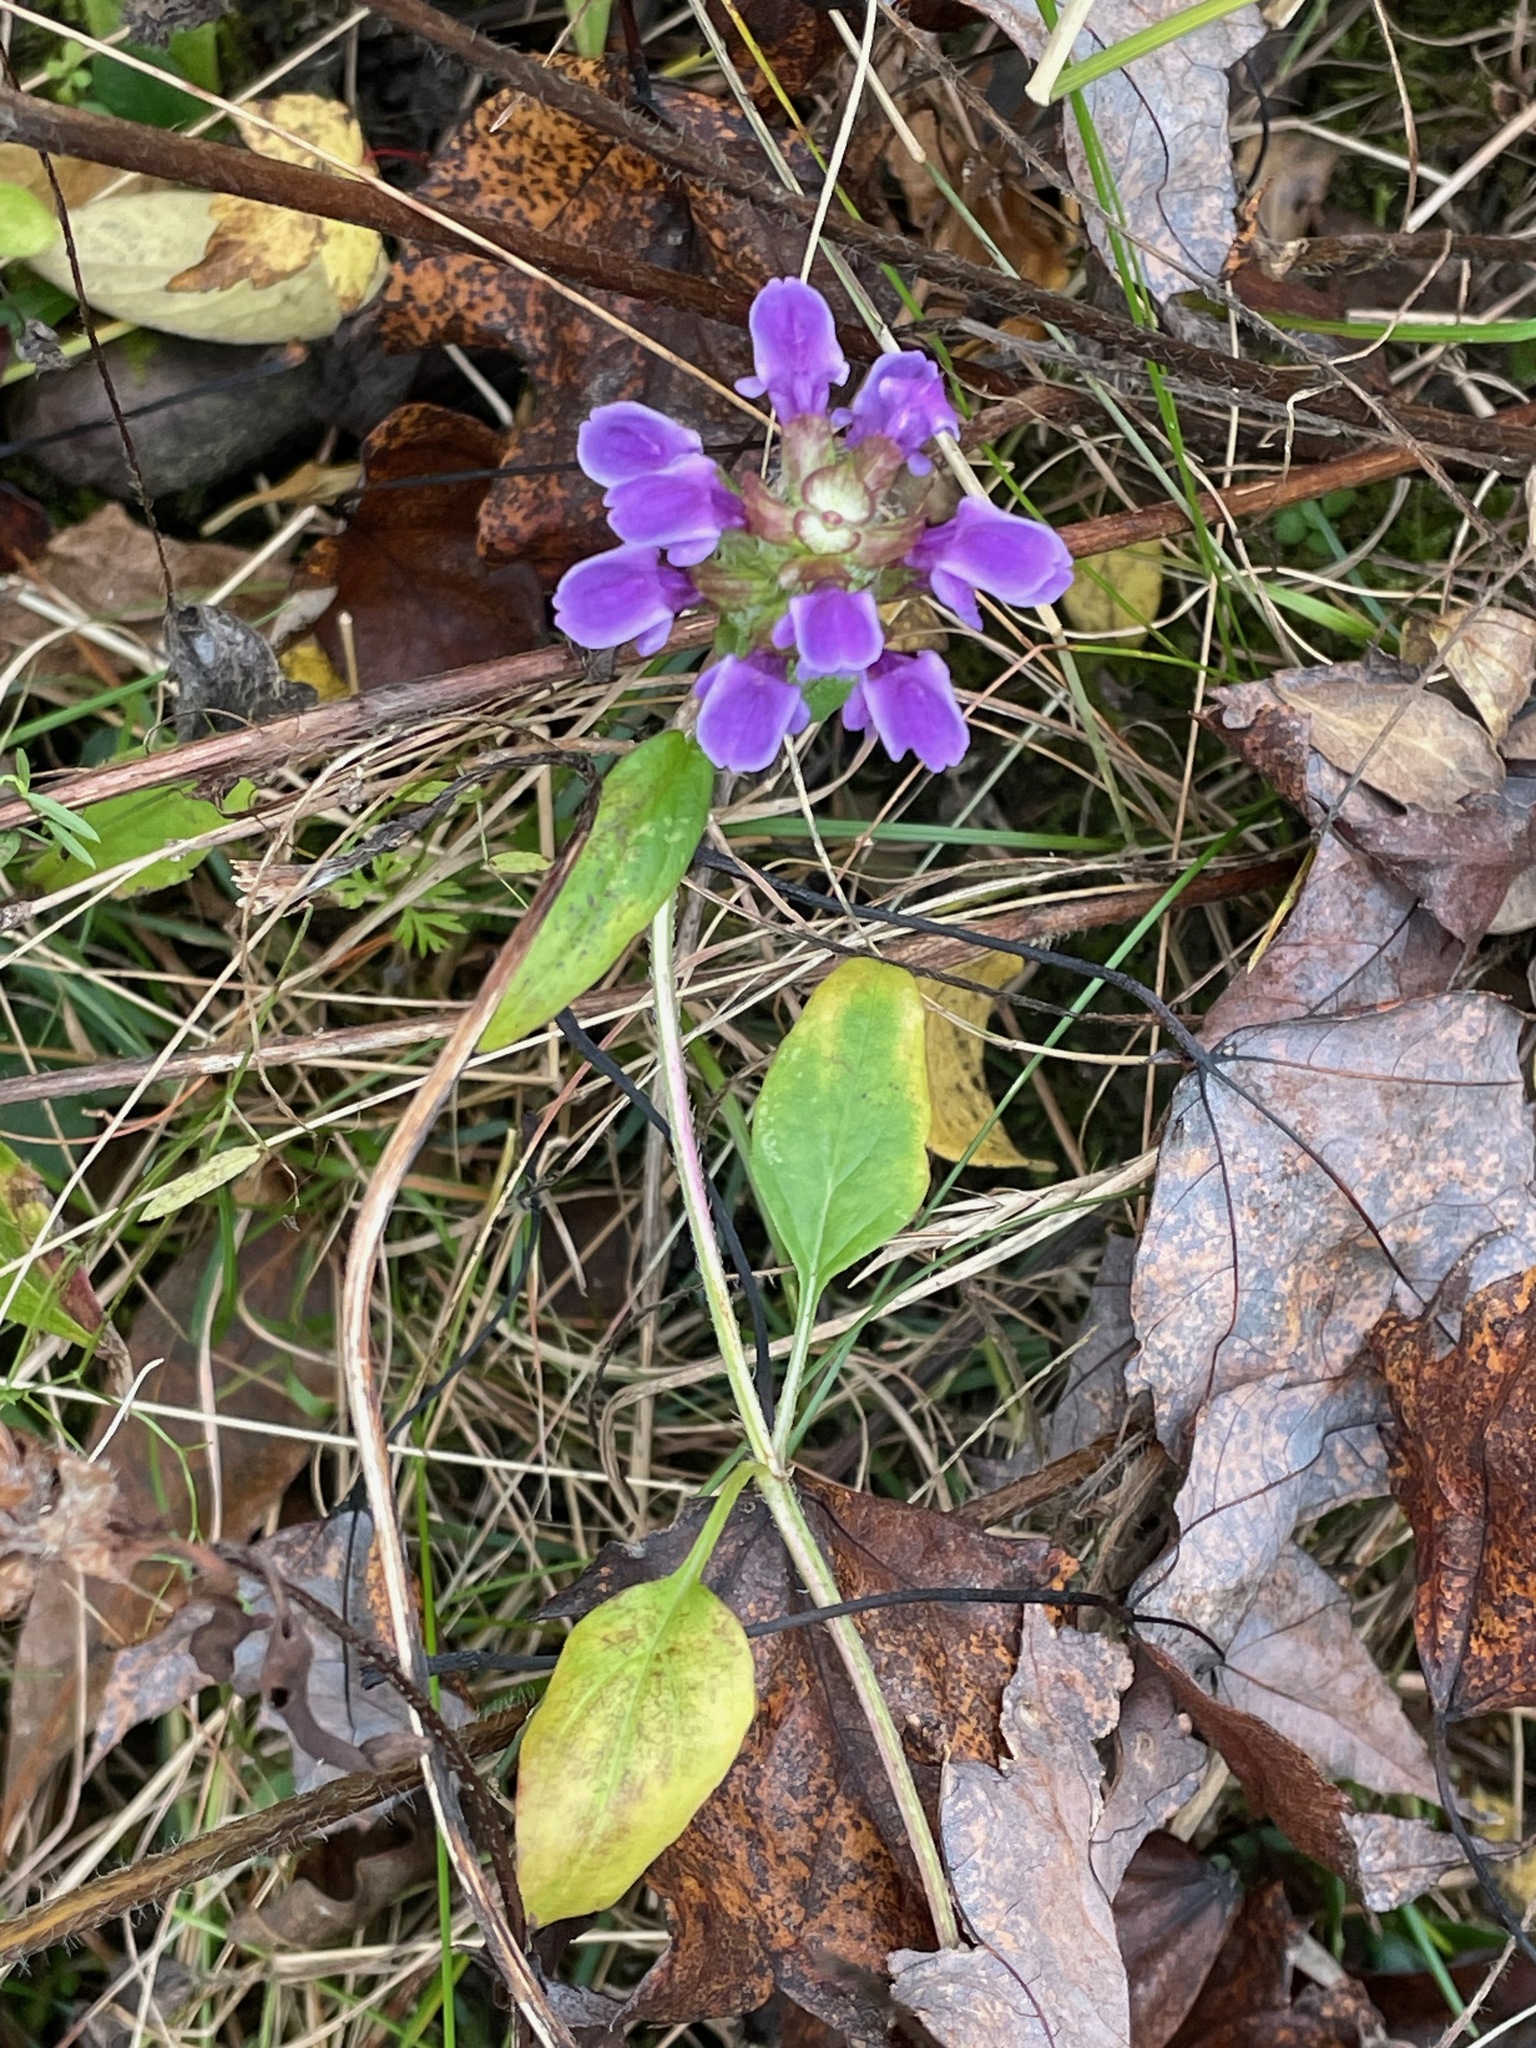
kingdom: Plantae
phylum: Tracheophyta
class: Magnoliopsida
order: Lamiales
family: Lamiaceae
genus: Prunella
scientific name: Prunella vulgaris
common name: Heal-all
